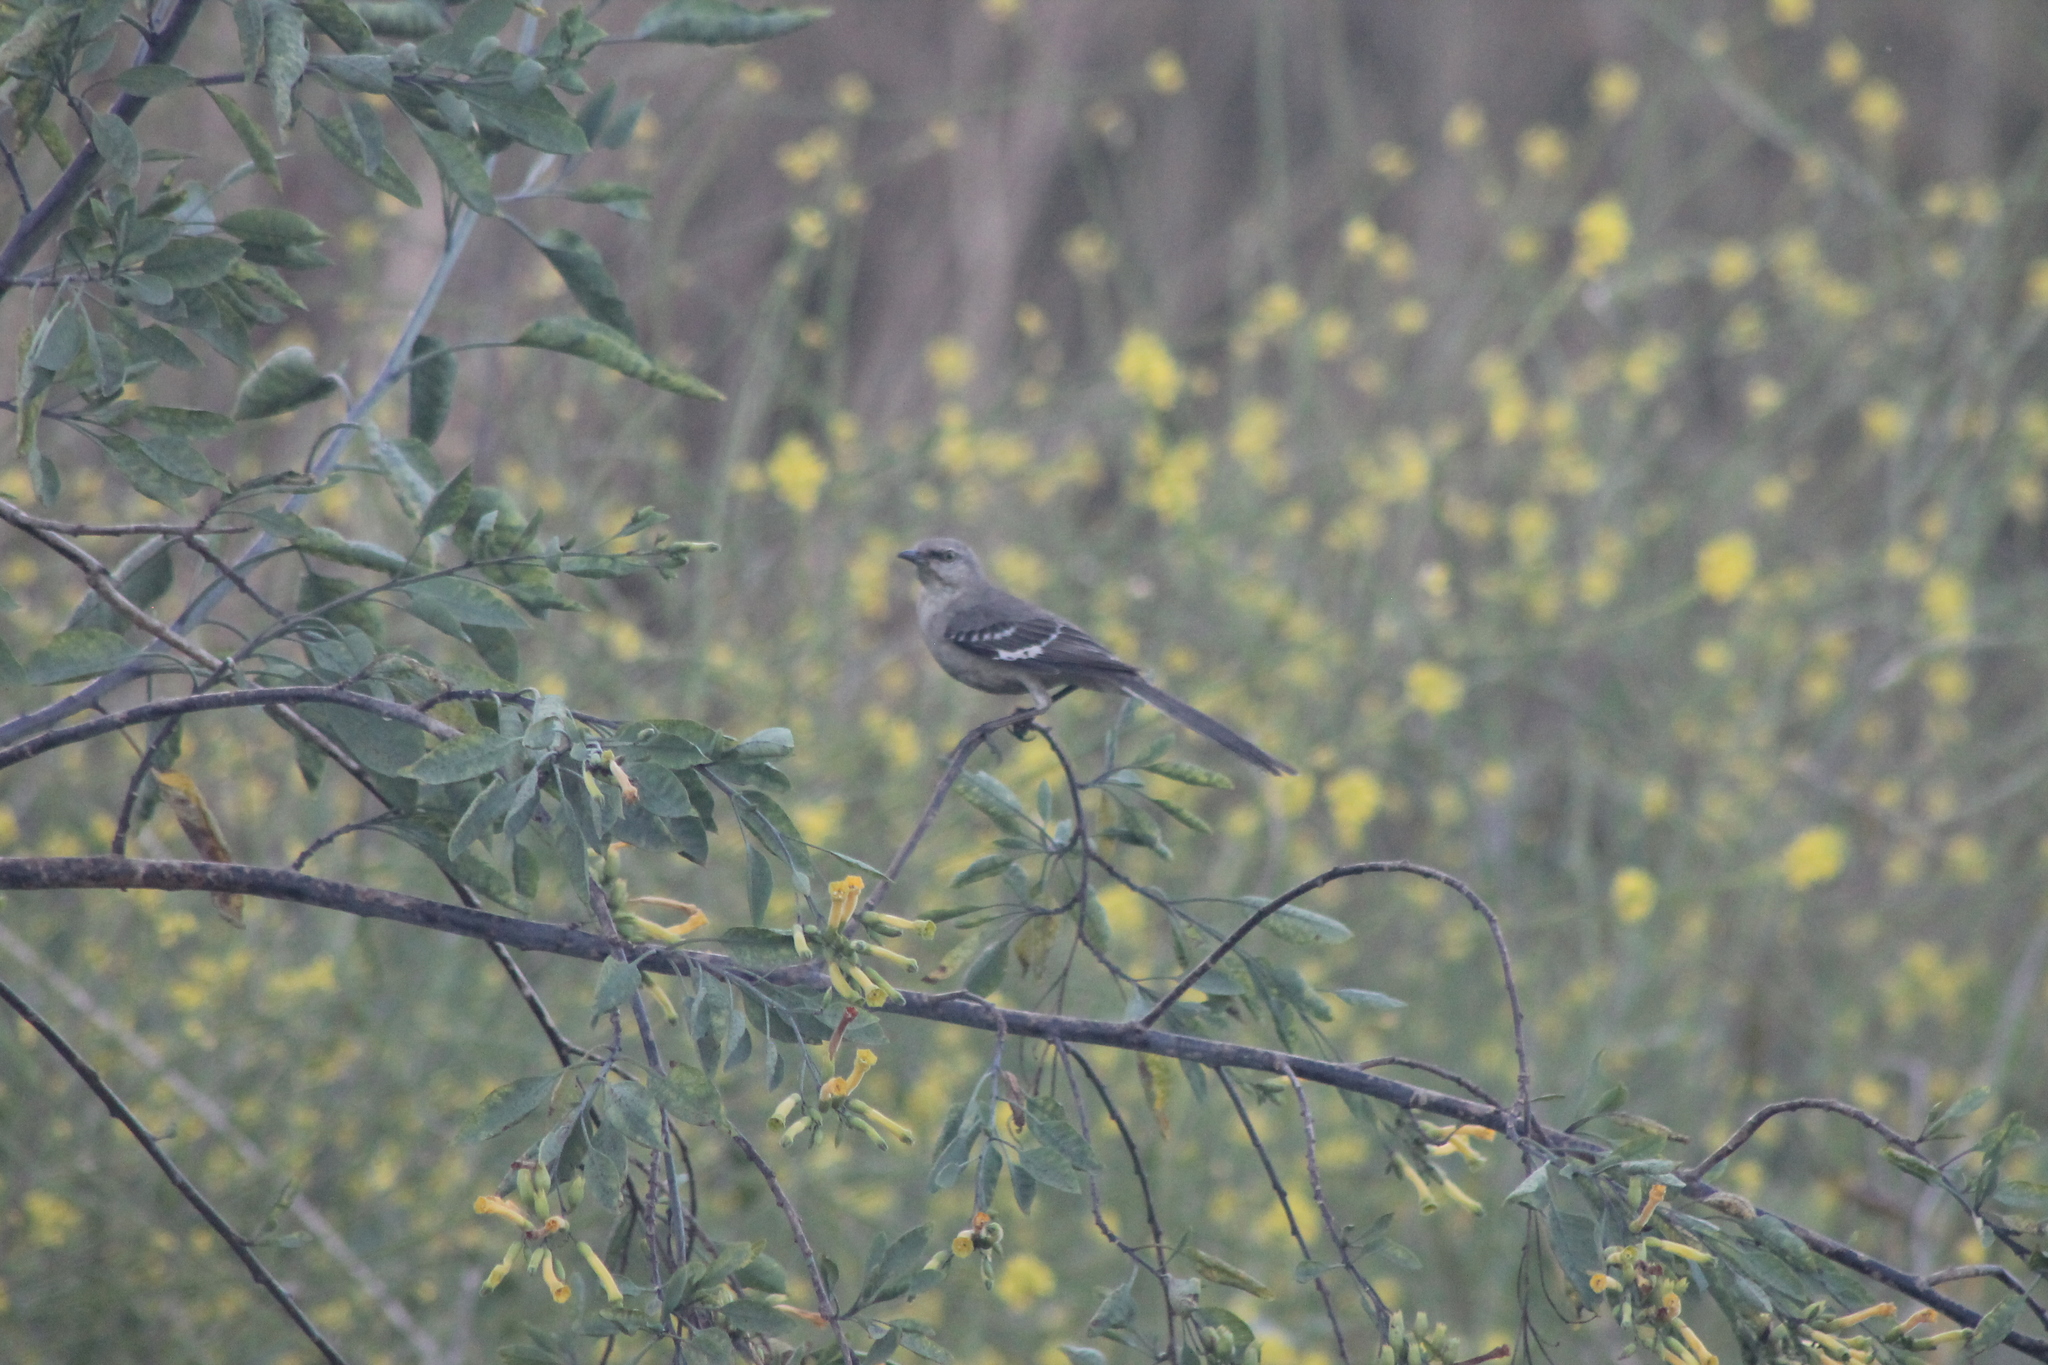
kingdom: Animalia
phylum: Chordata
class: Aves
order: Passeriformes
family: Mimidae
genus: Mimus
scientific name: Mimus polyglottos
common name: Northern mockingbird
